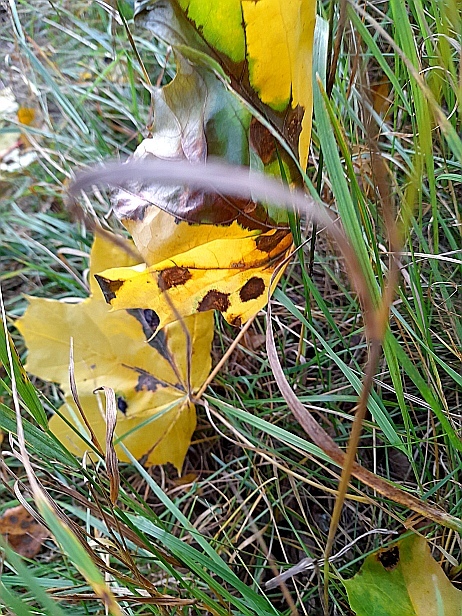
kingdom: Plantae
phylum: Tracheophyta
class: Magnoliopsida
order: Sapindales
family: Sapindaceae
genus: Acer
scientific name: Acer platanoides
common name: Norway maple
